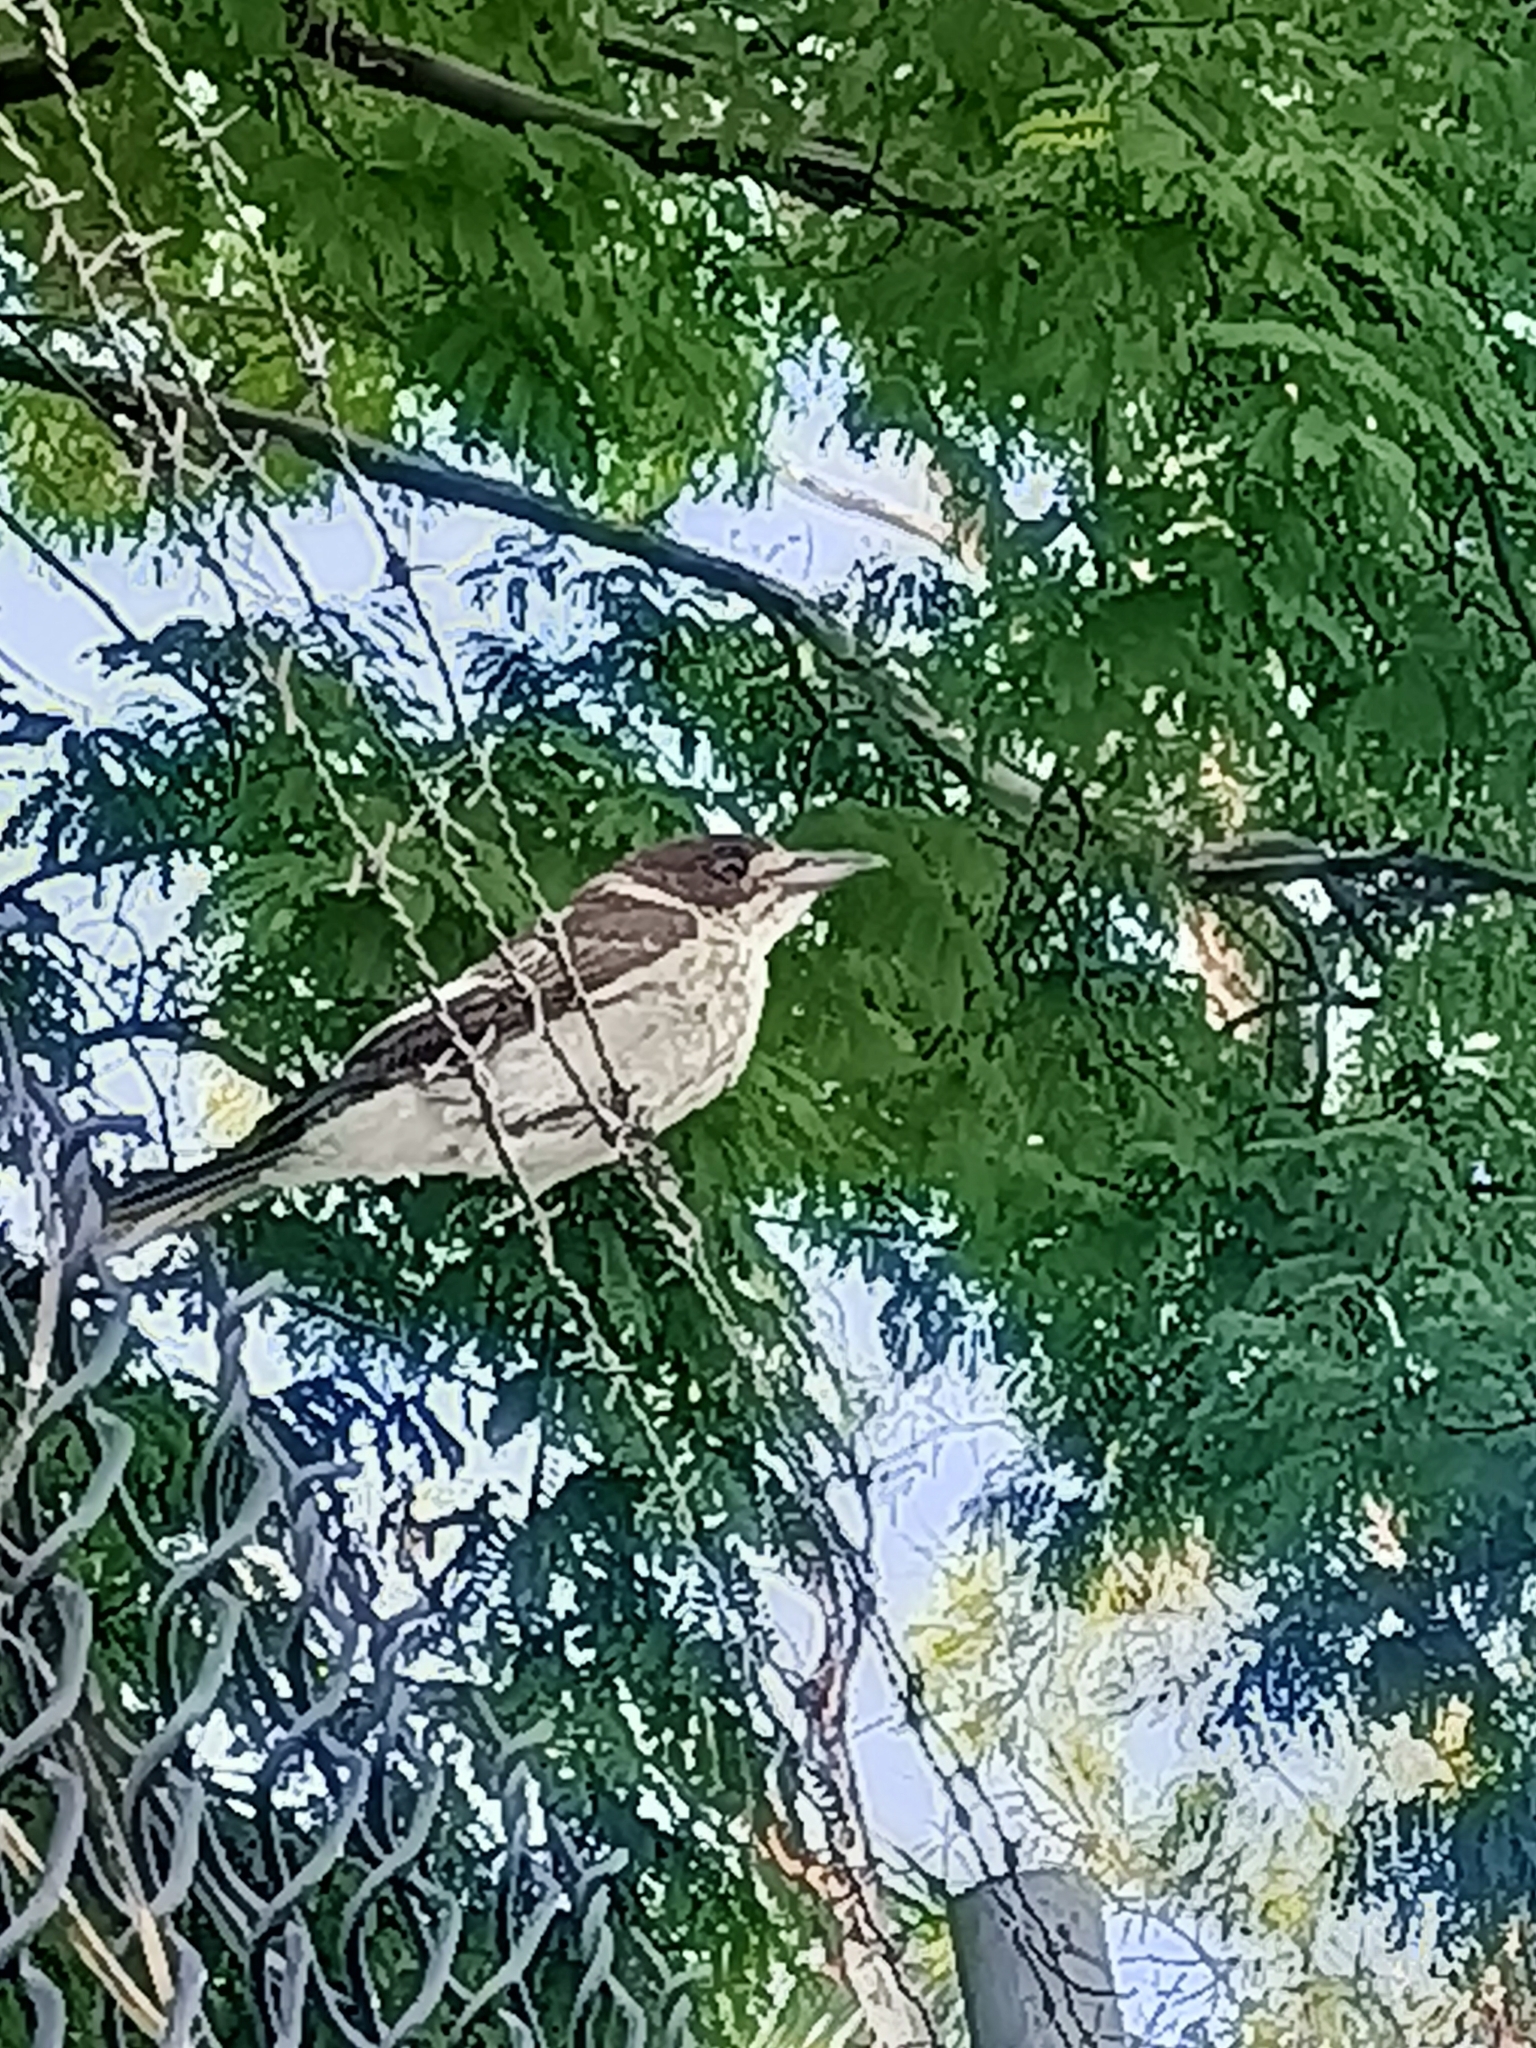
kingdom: Animalia
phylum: Chordata
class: Aves
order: Passeriformes
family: Cracticidae
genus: Cracticus
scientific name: Cracticus torquatus
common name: Grey butcherbird
